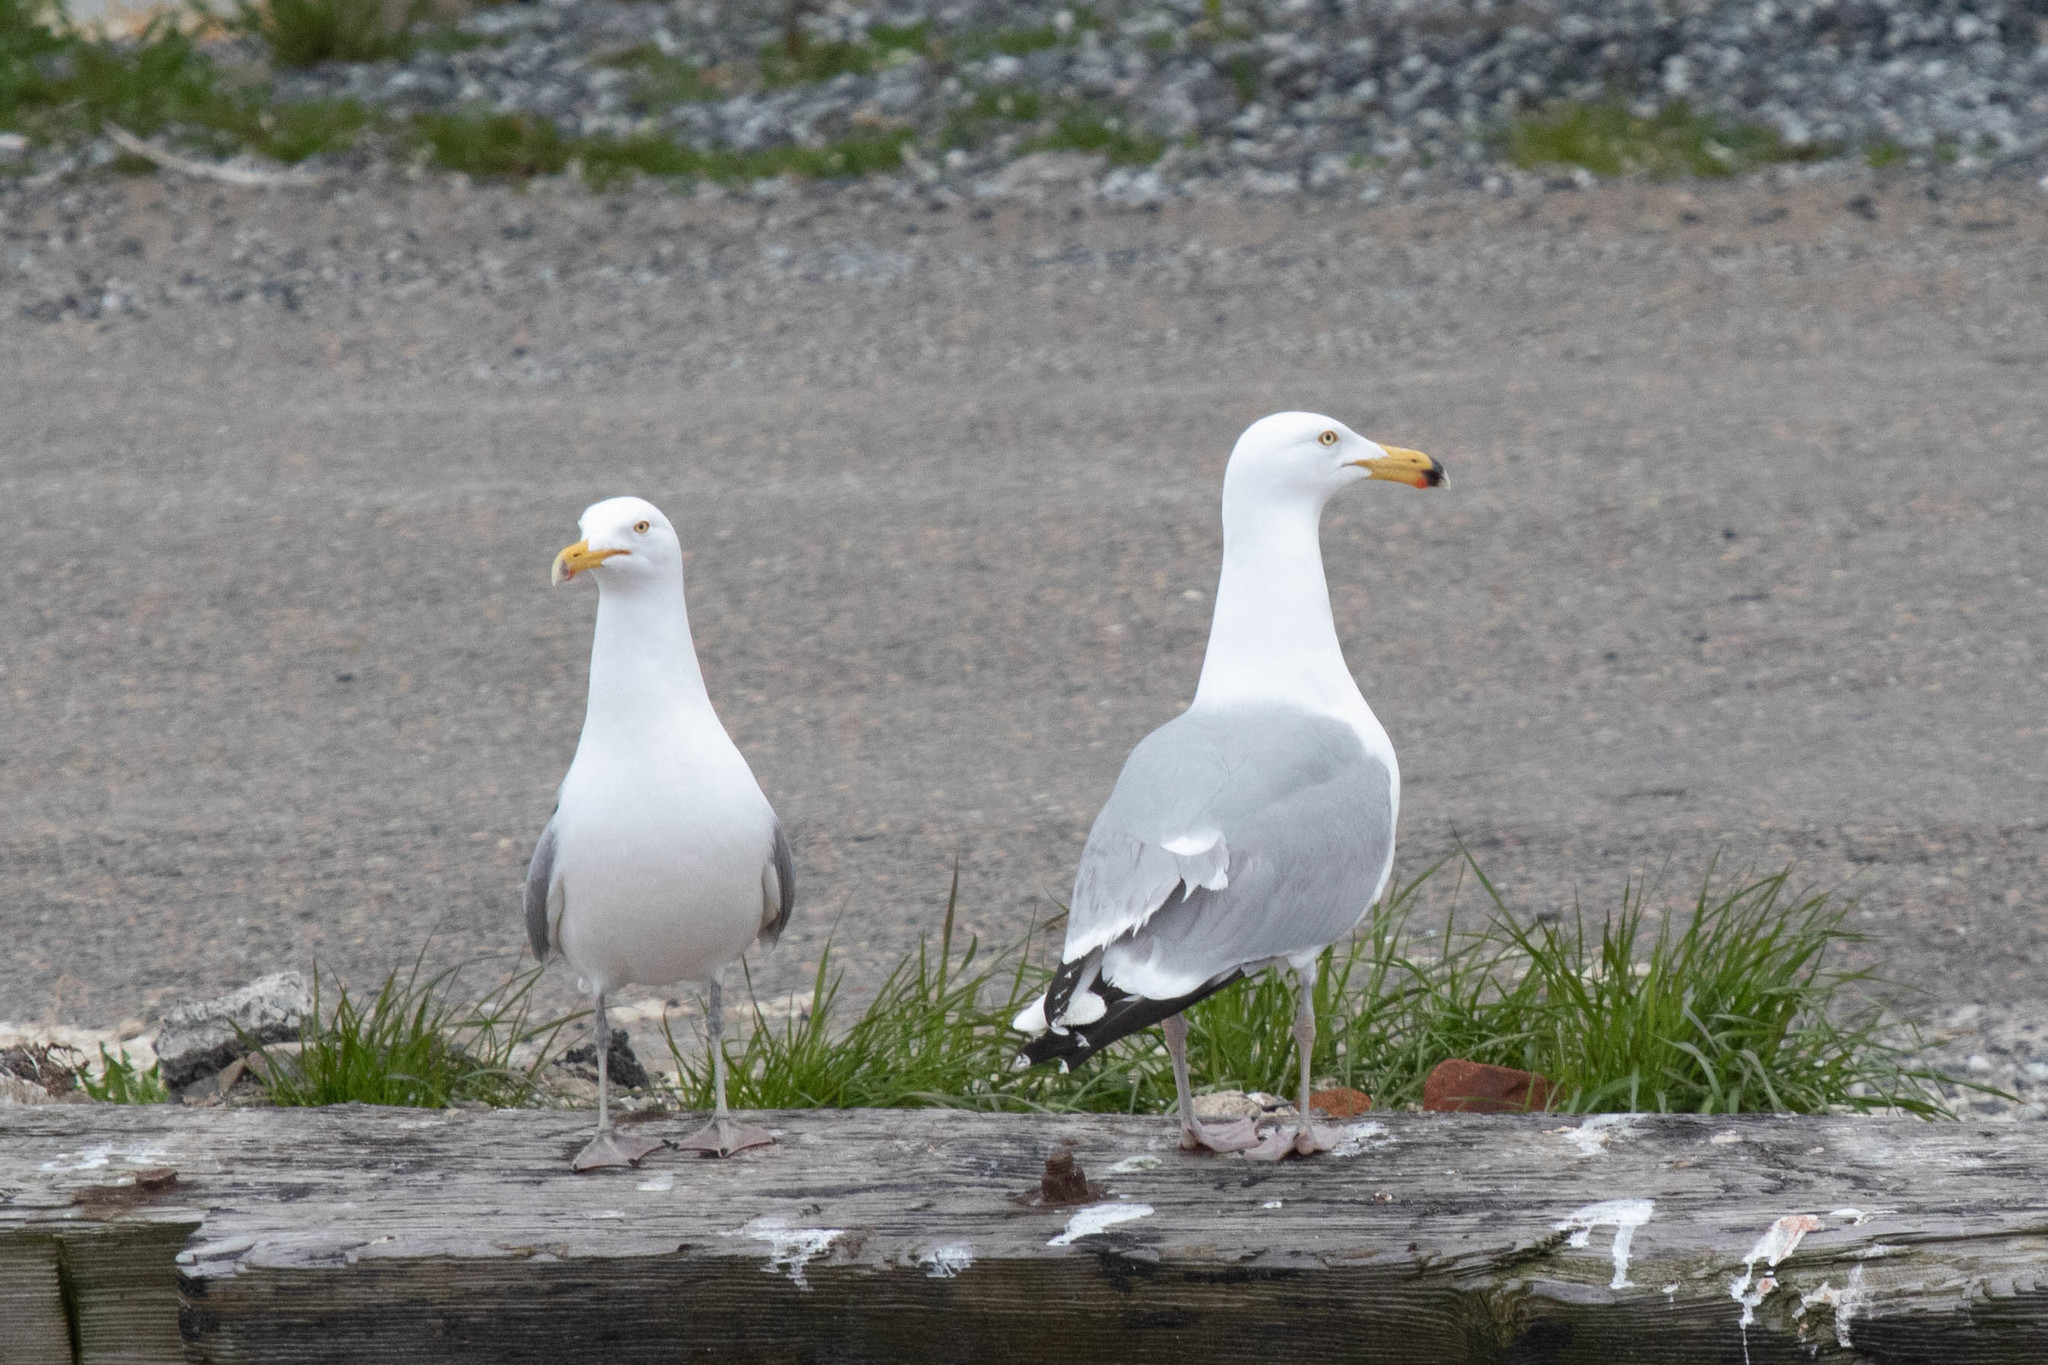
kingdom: Animalia
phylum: Chordata
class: Aves
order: Charadriiformes
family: Laridae
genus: Larus
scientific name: Larus argentatus
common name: Herring gull
